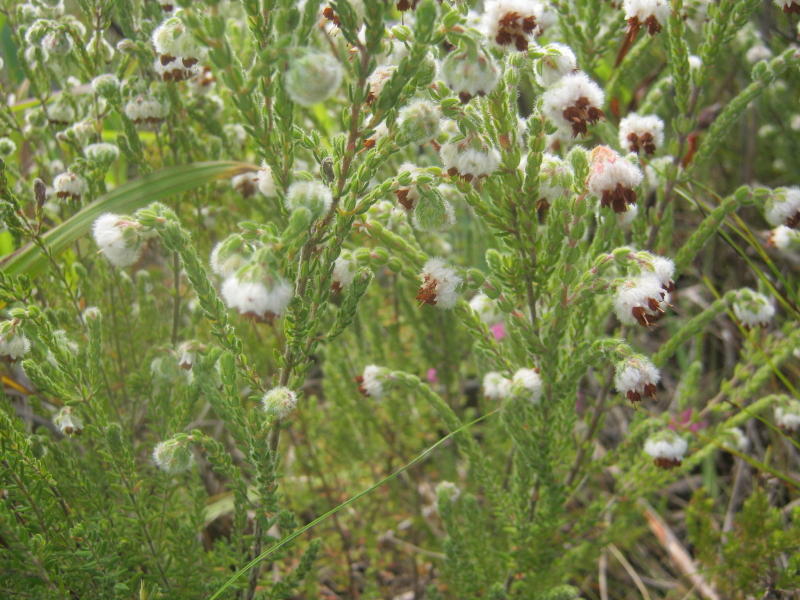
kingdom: Plantae
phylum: Tracheophyta
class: Magnoliopsida
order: Ericales
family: Ericaceae
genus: Erica
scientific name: Erica flaccida
